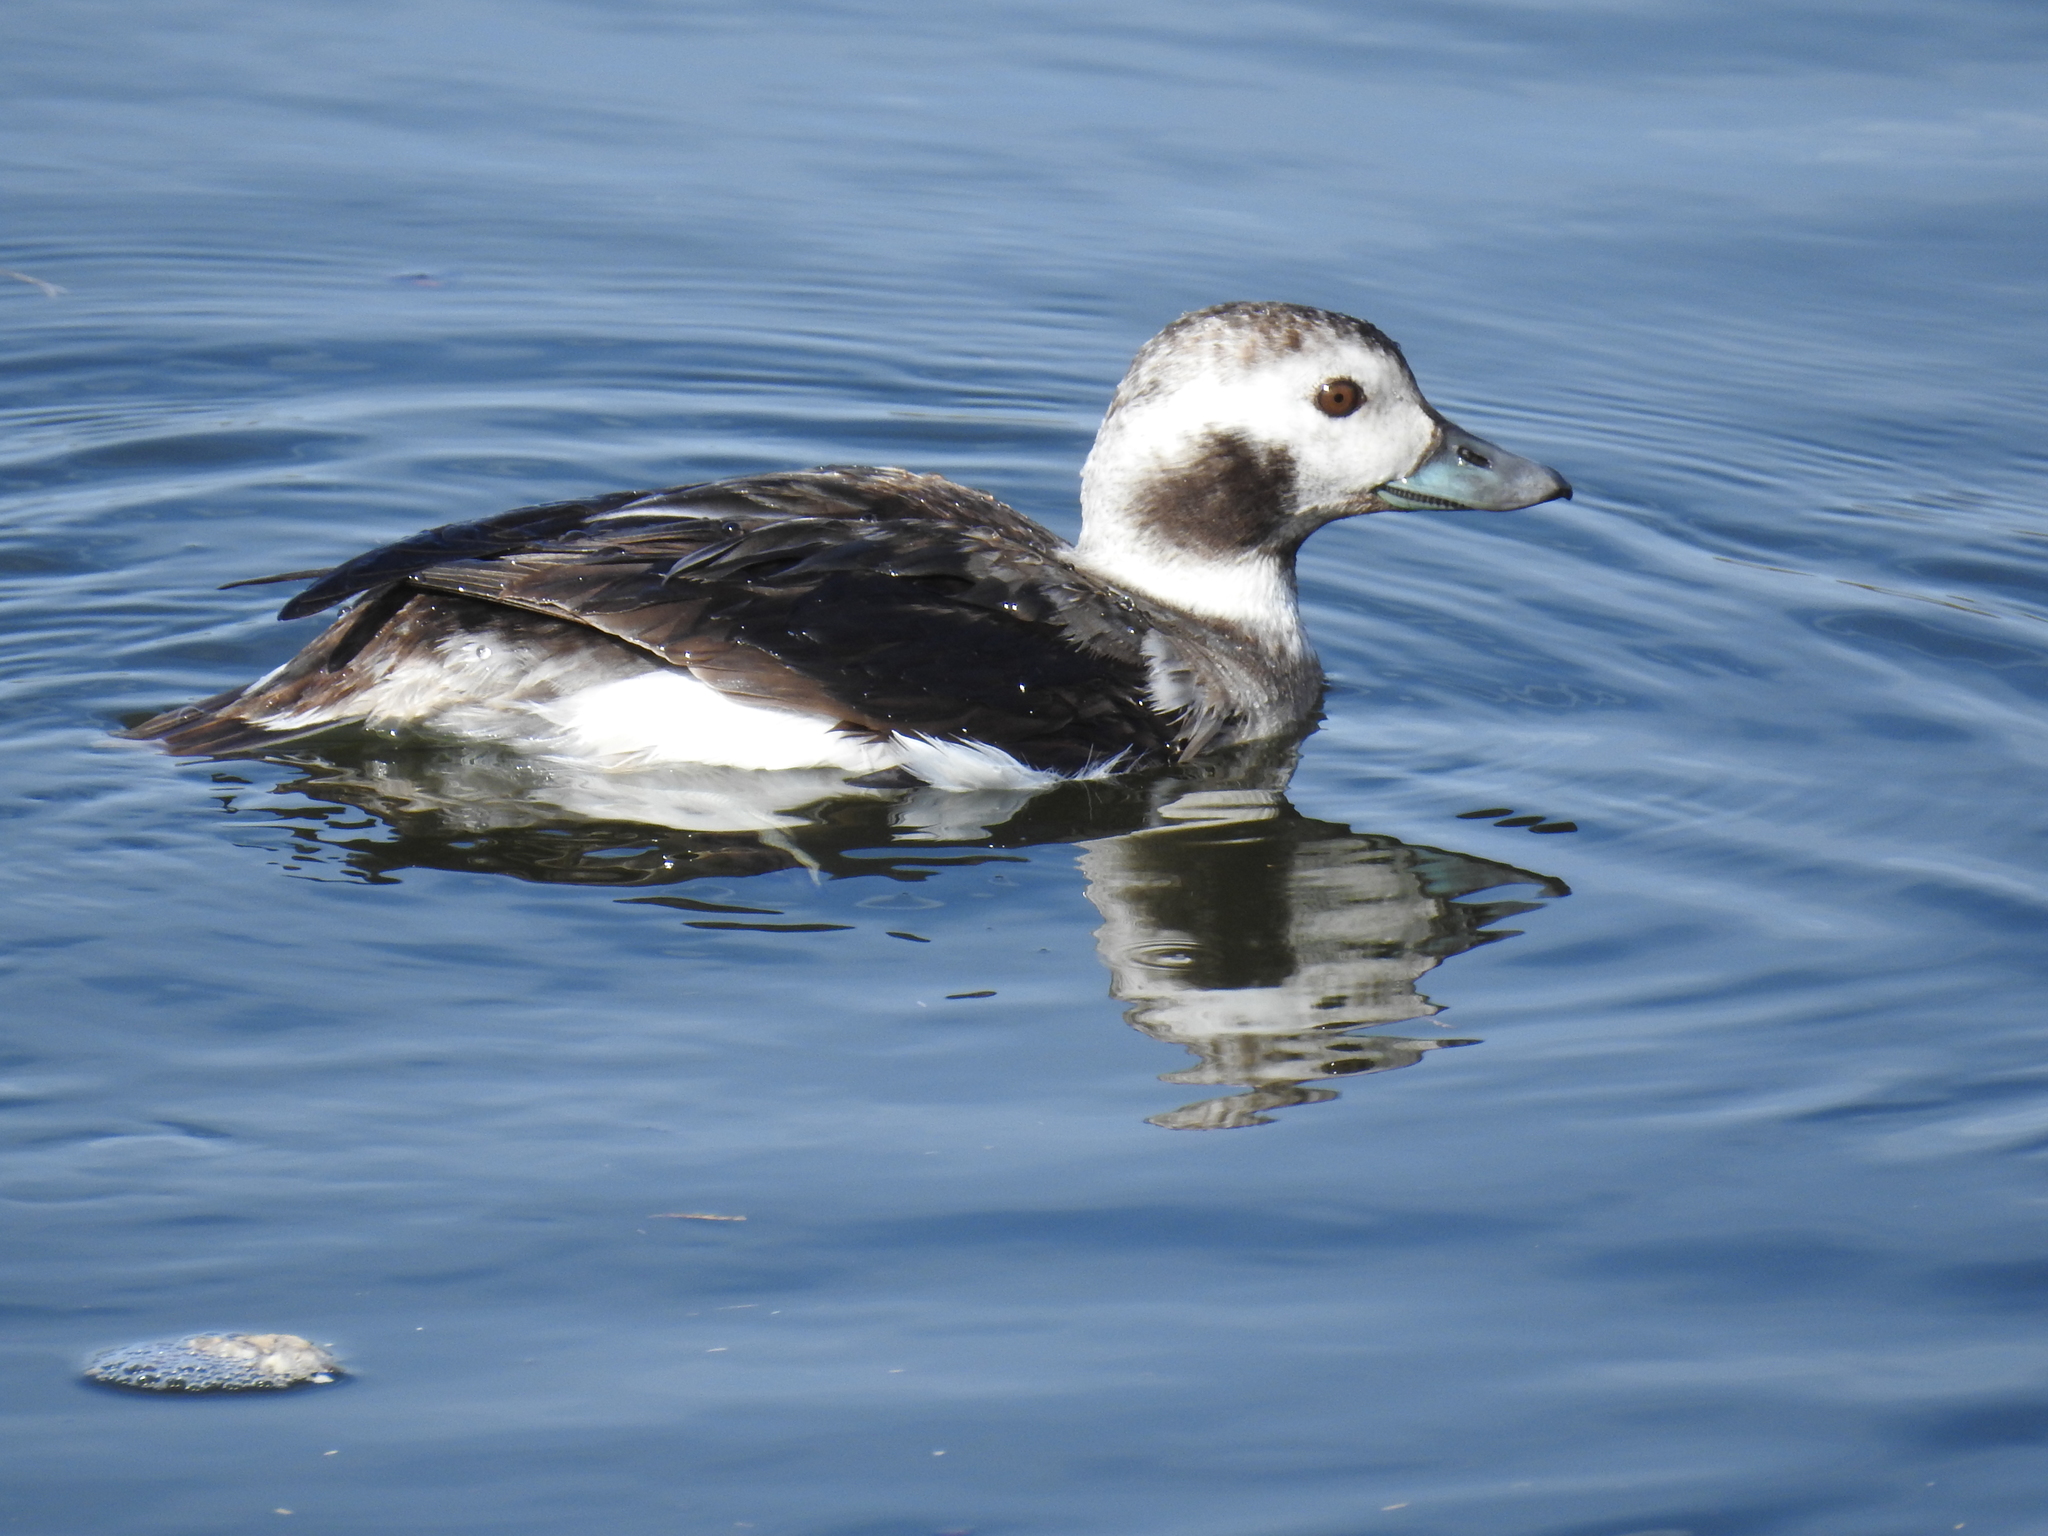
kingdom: Animalia
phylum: Chordata
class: Aves
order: Anseriformes
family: Anatidae
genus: Clangula
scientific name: Clangula hyemalis
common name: Long-tailed duck
